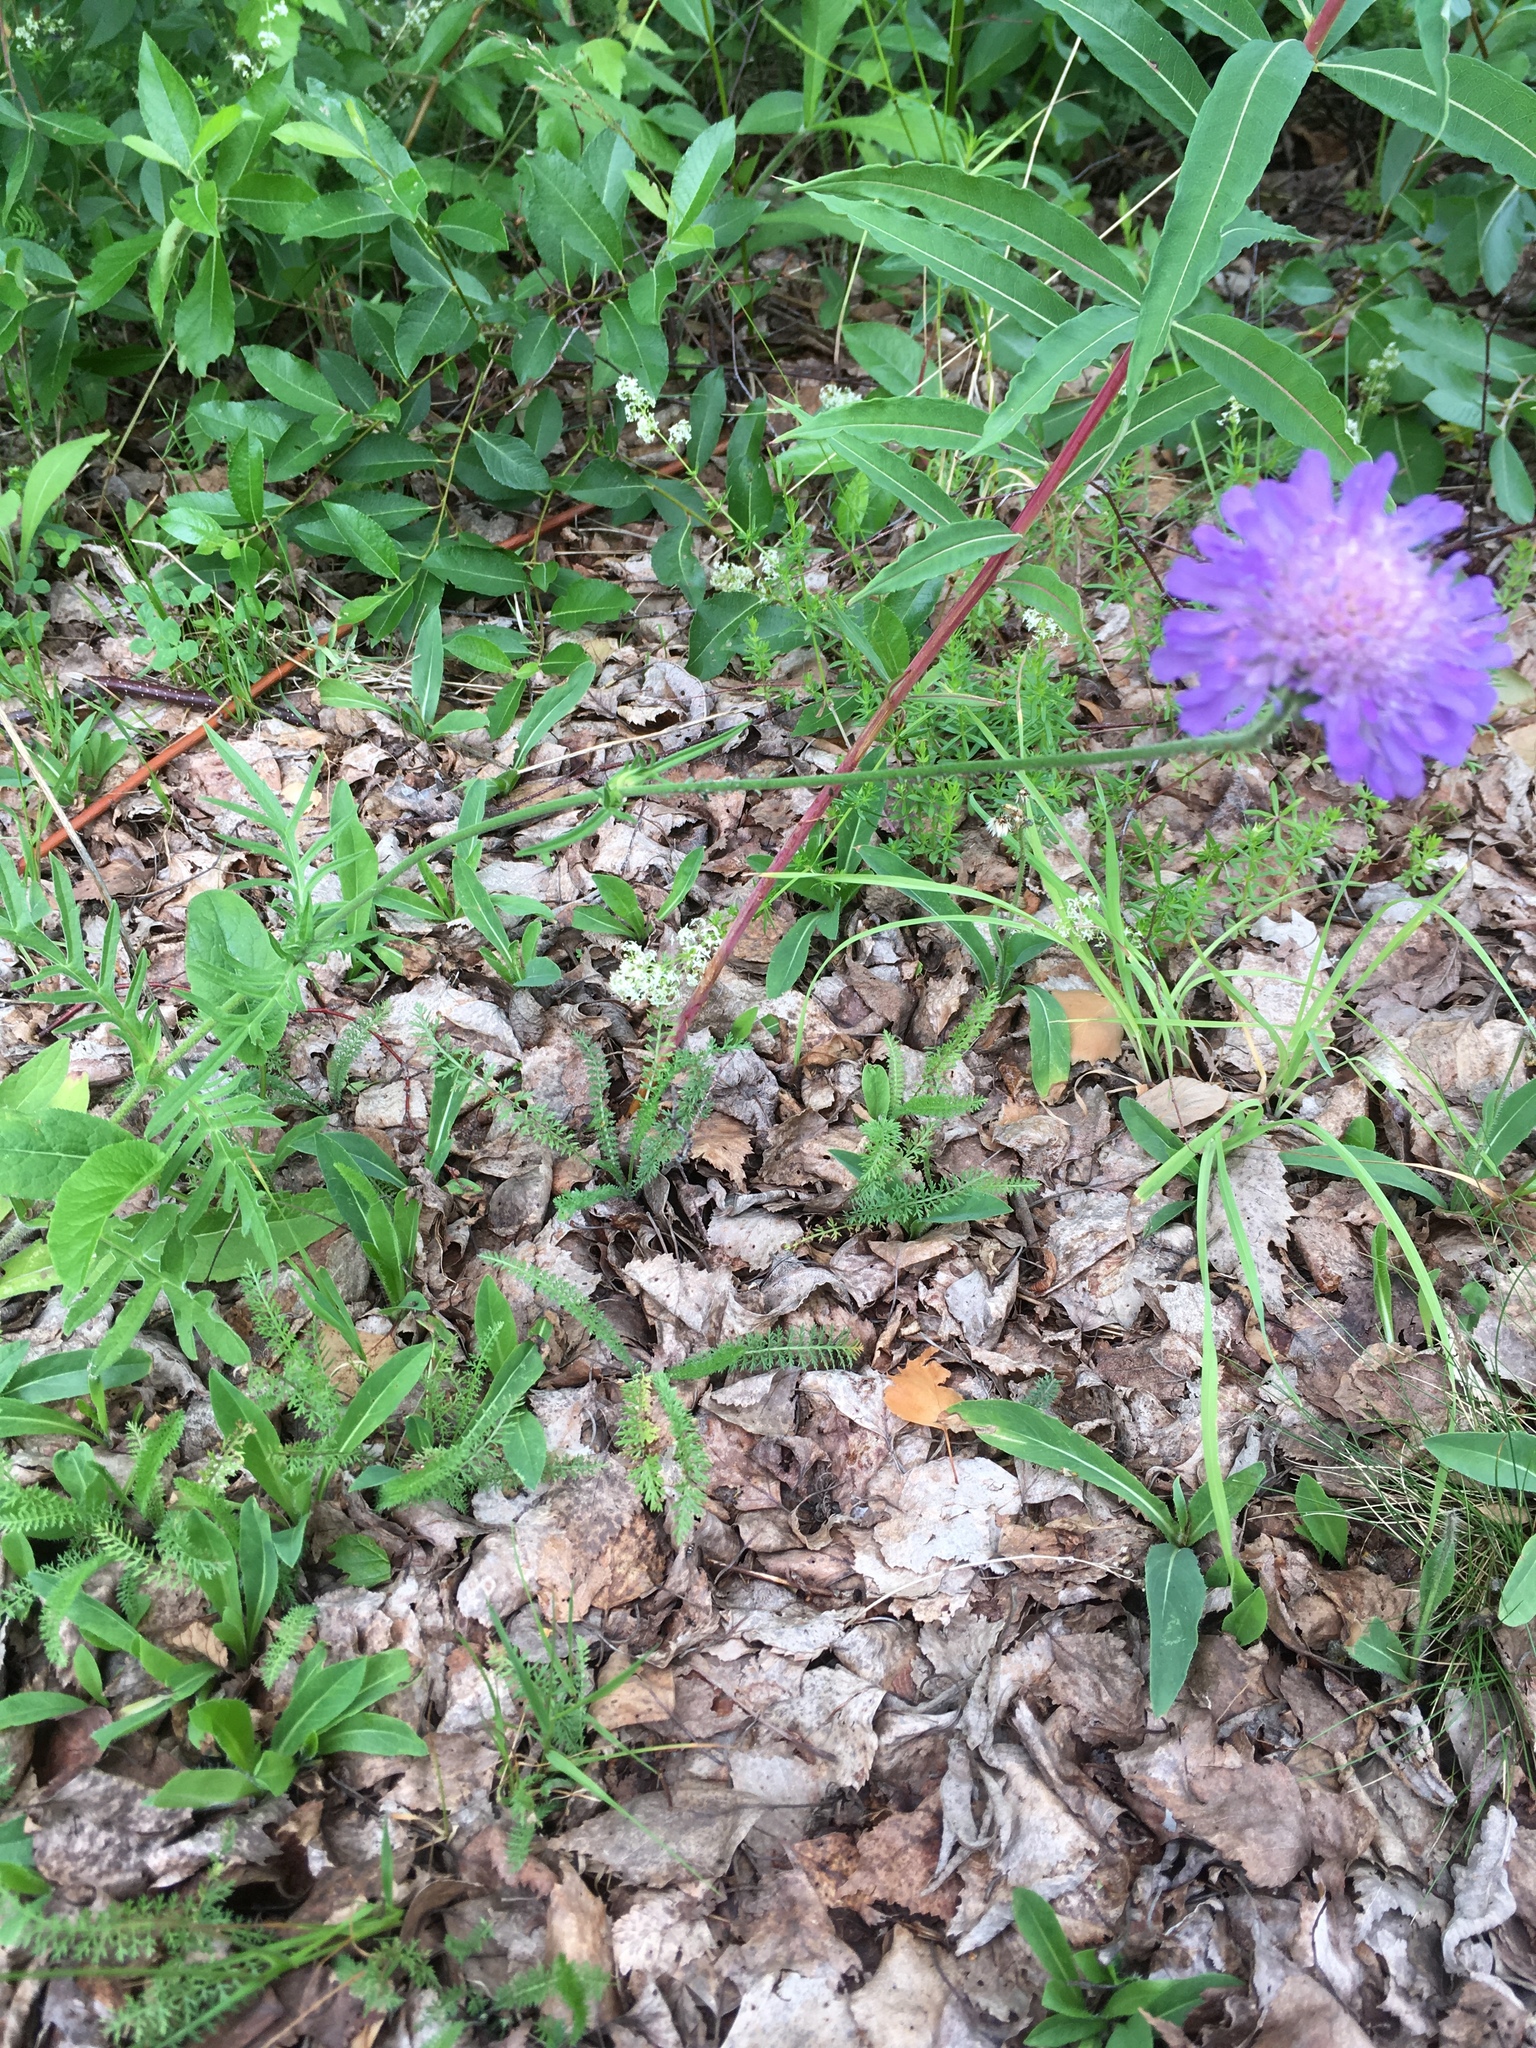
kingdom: Plantae
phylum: Tracheophyta
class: Magnoliopsida
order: Dipsacales
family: Caprifoliaceae
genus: Knautia
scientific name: Knautia arvensis
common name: Field scabiosa
